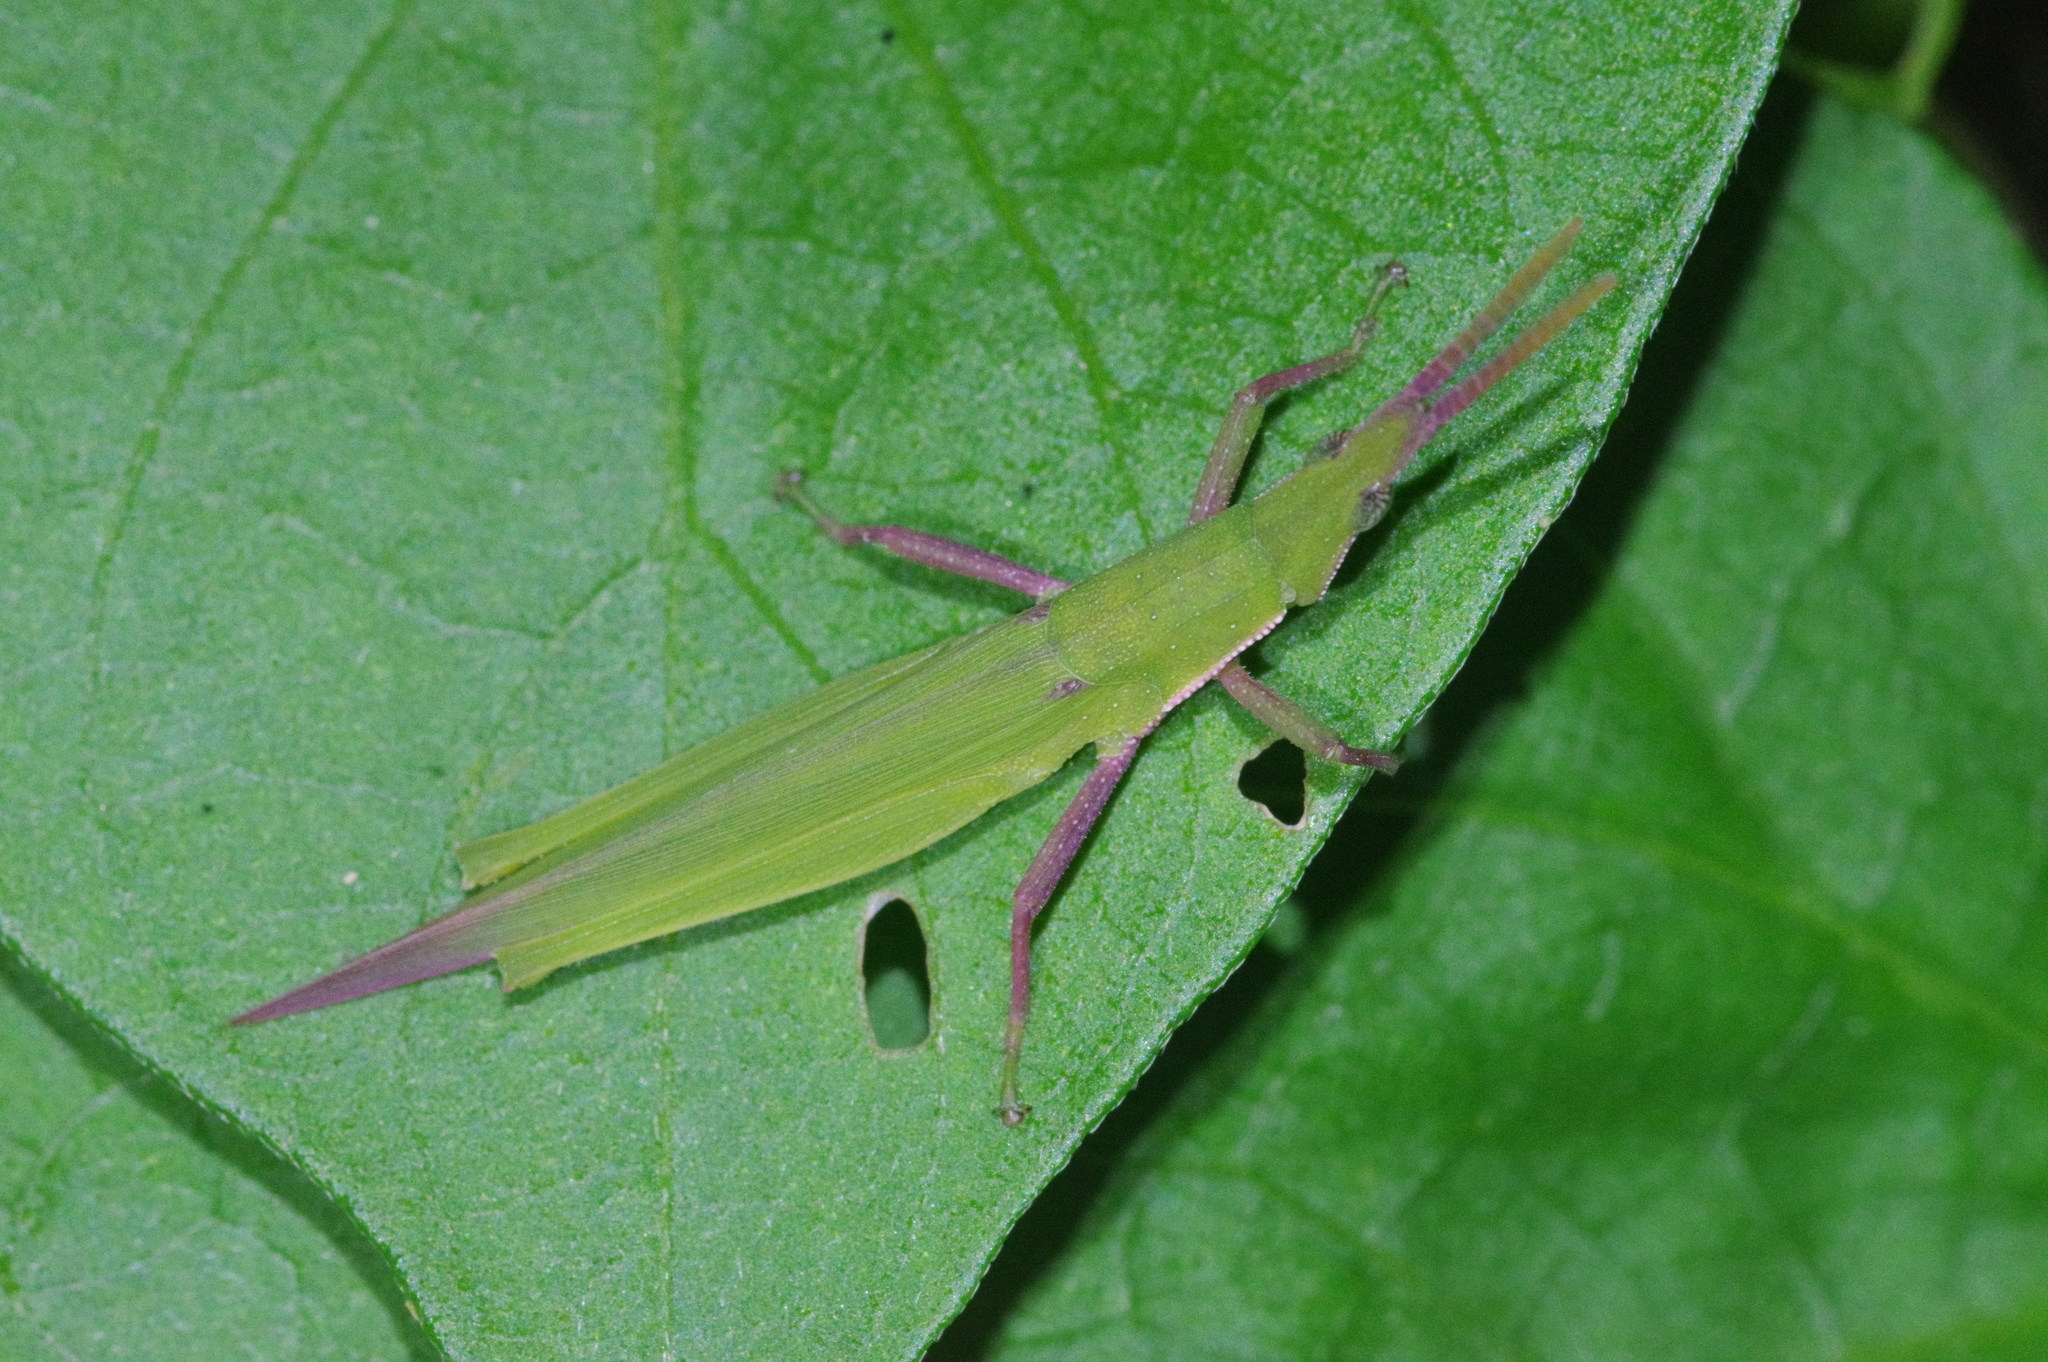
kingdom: Animalia
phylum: Arthropoda
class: Insecta
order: Orthoptera
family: Pyrgomorphidae
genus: Atractomorpha
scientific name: Atractomorpha sinensis
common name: Pinkwinged grasshopper
